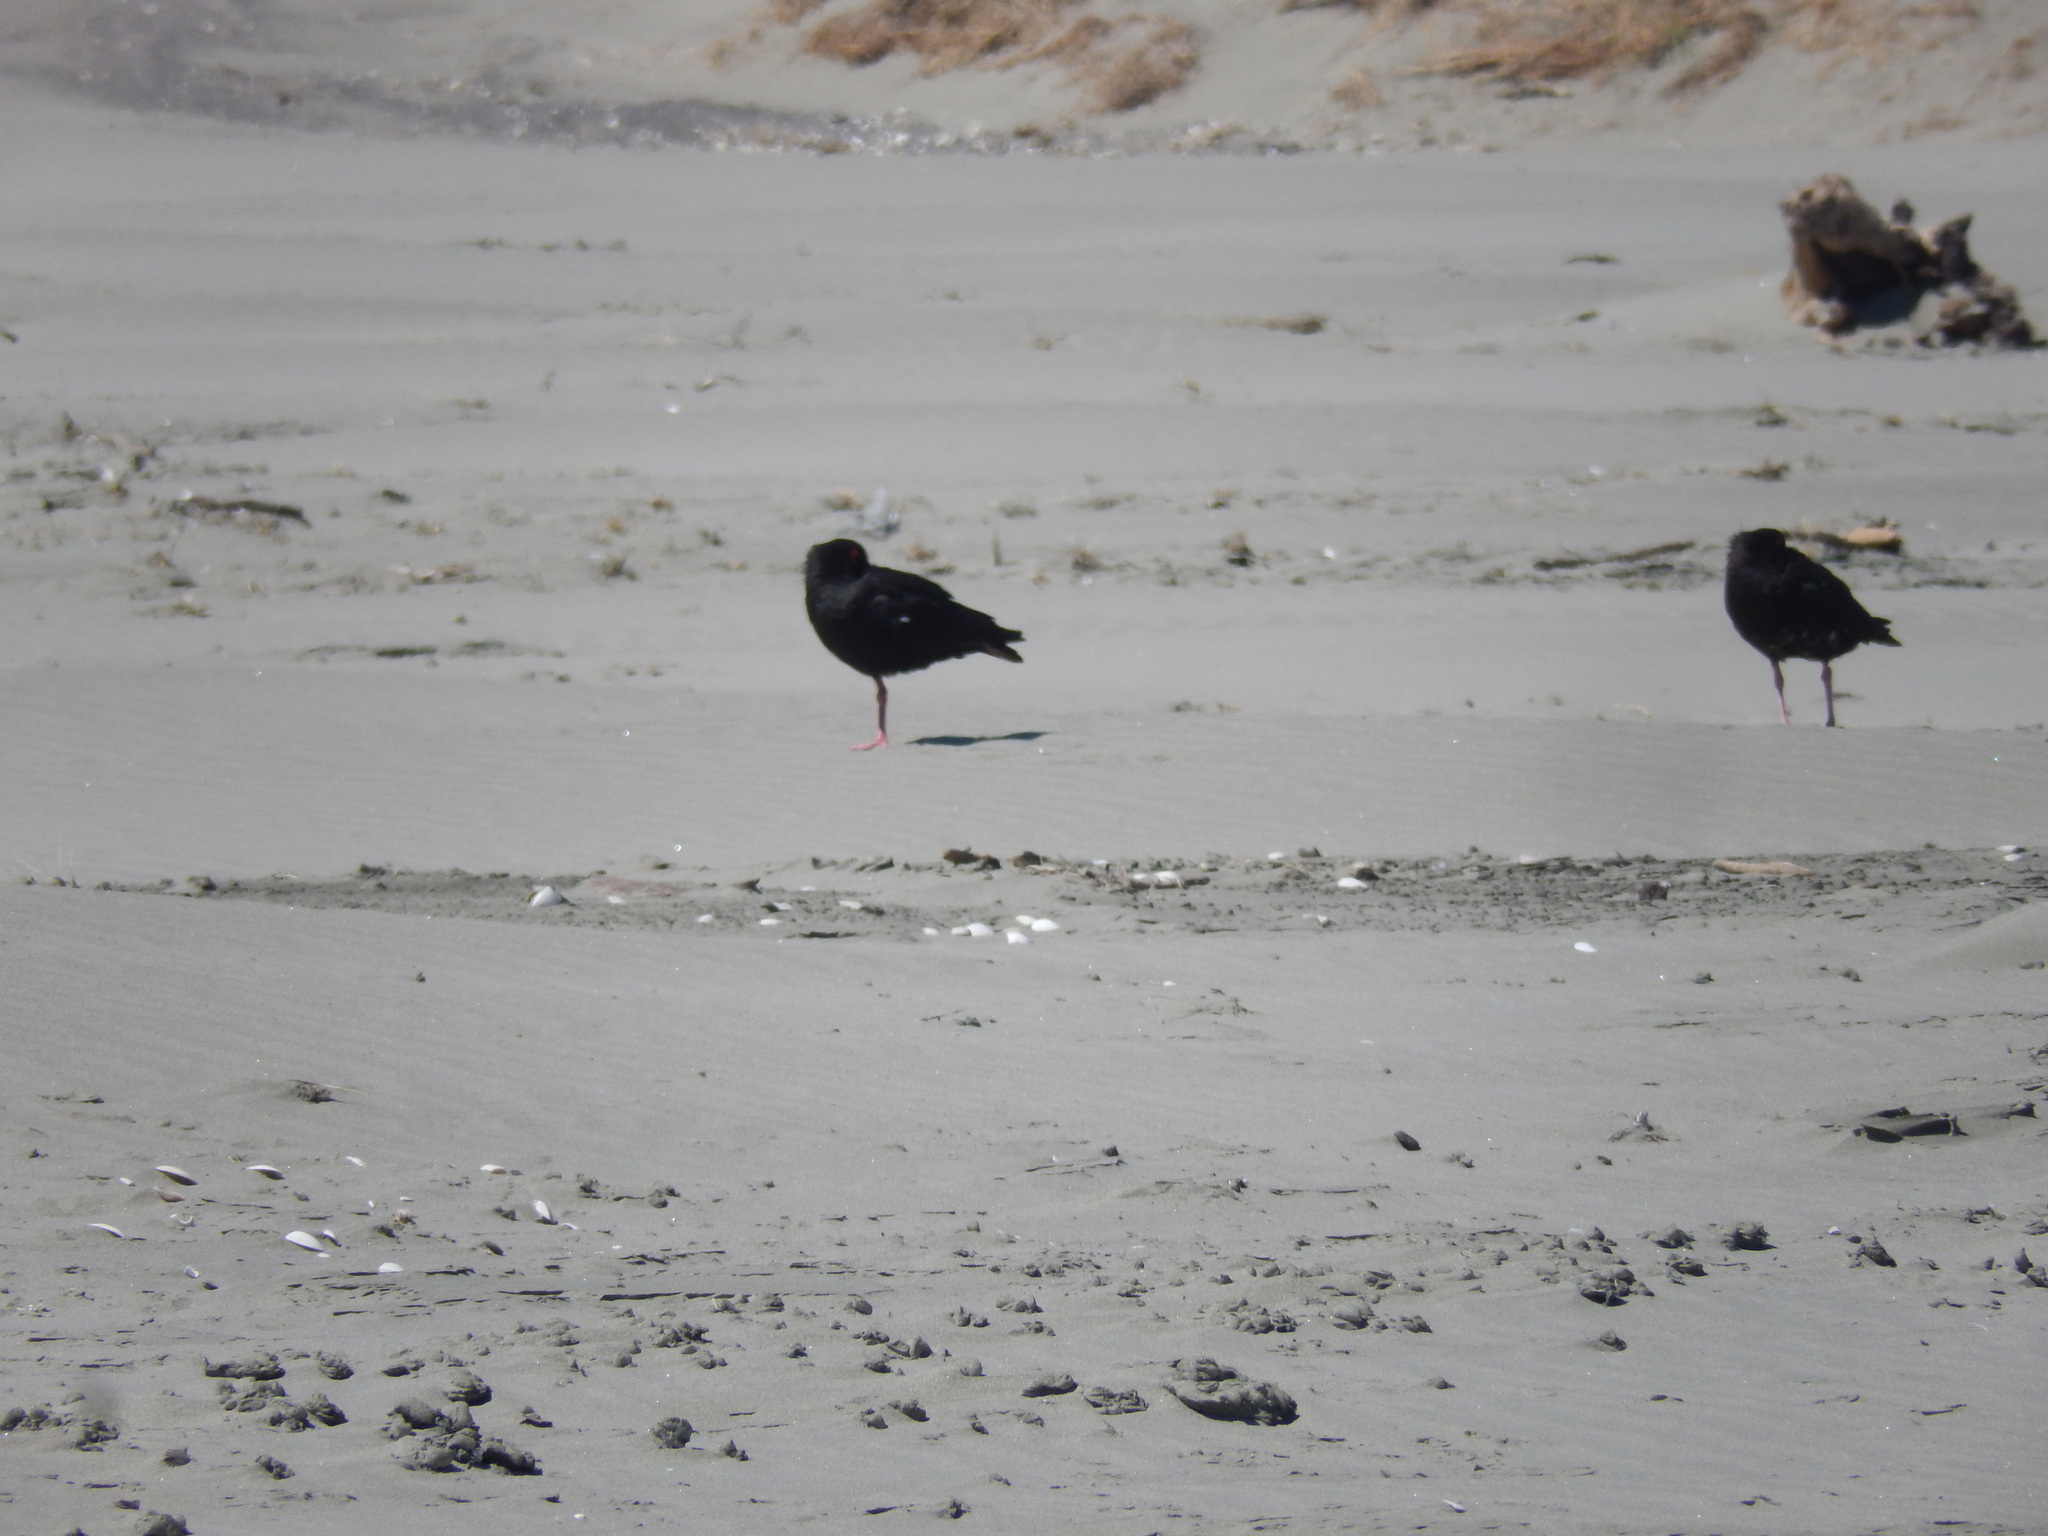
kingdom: Animalia
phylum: Chordata
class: Aves
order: Charadriiformes
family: Haematopodidae
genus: Haematopus
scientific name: Haematopus unicolor
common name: Variable oystercatcher
